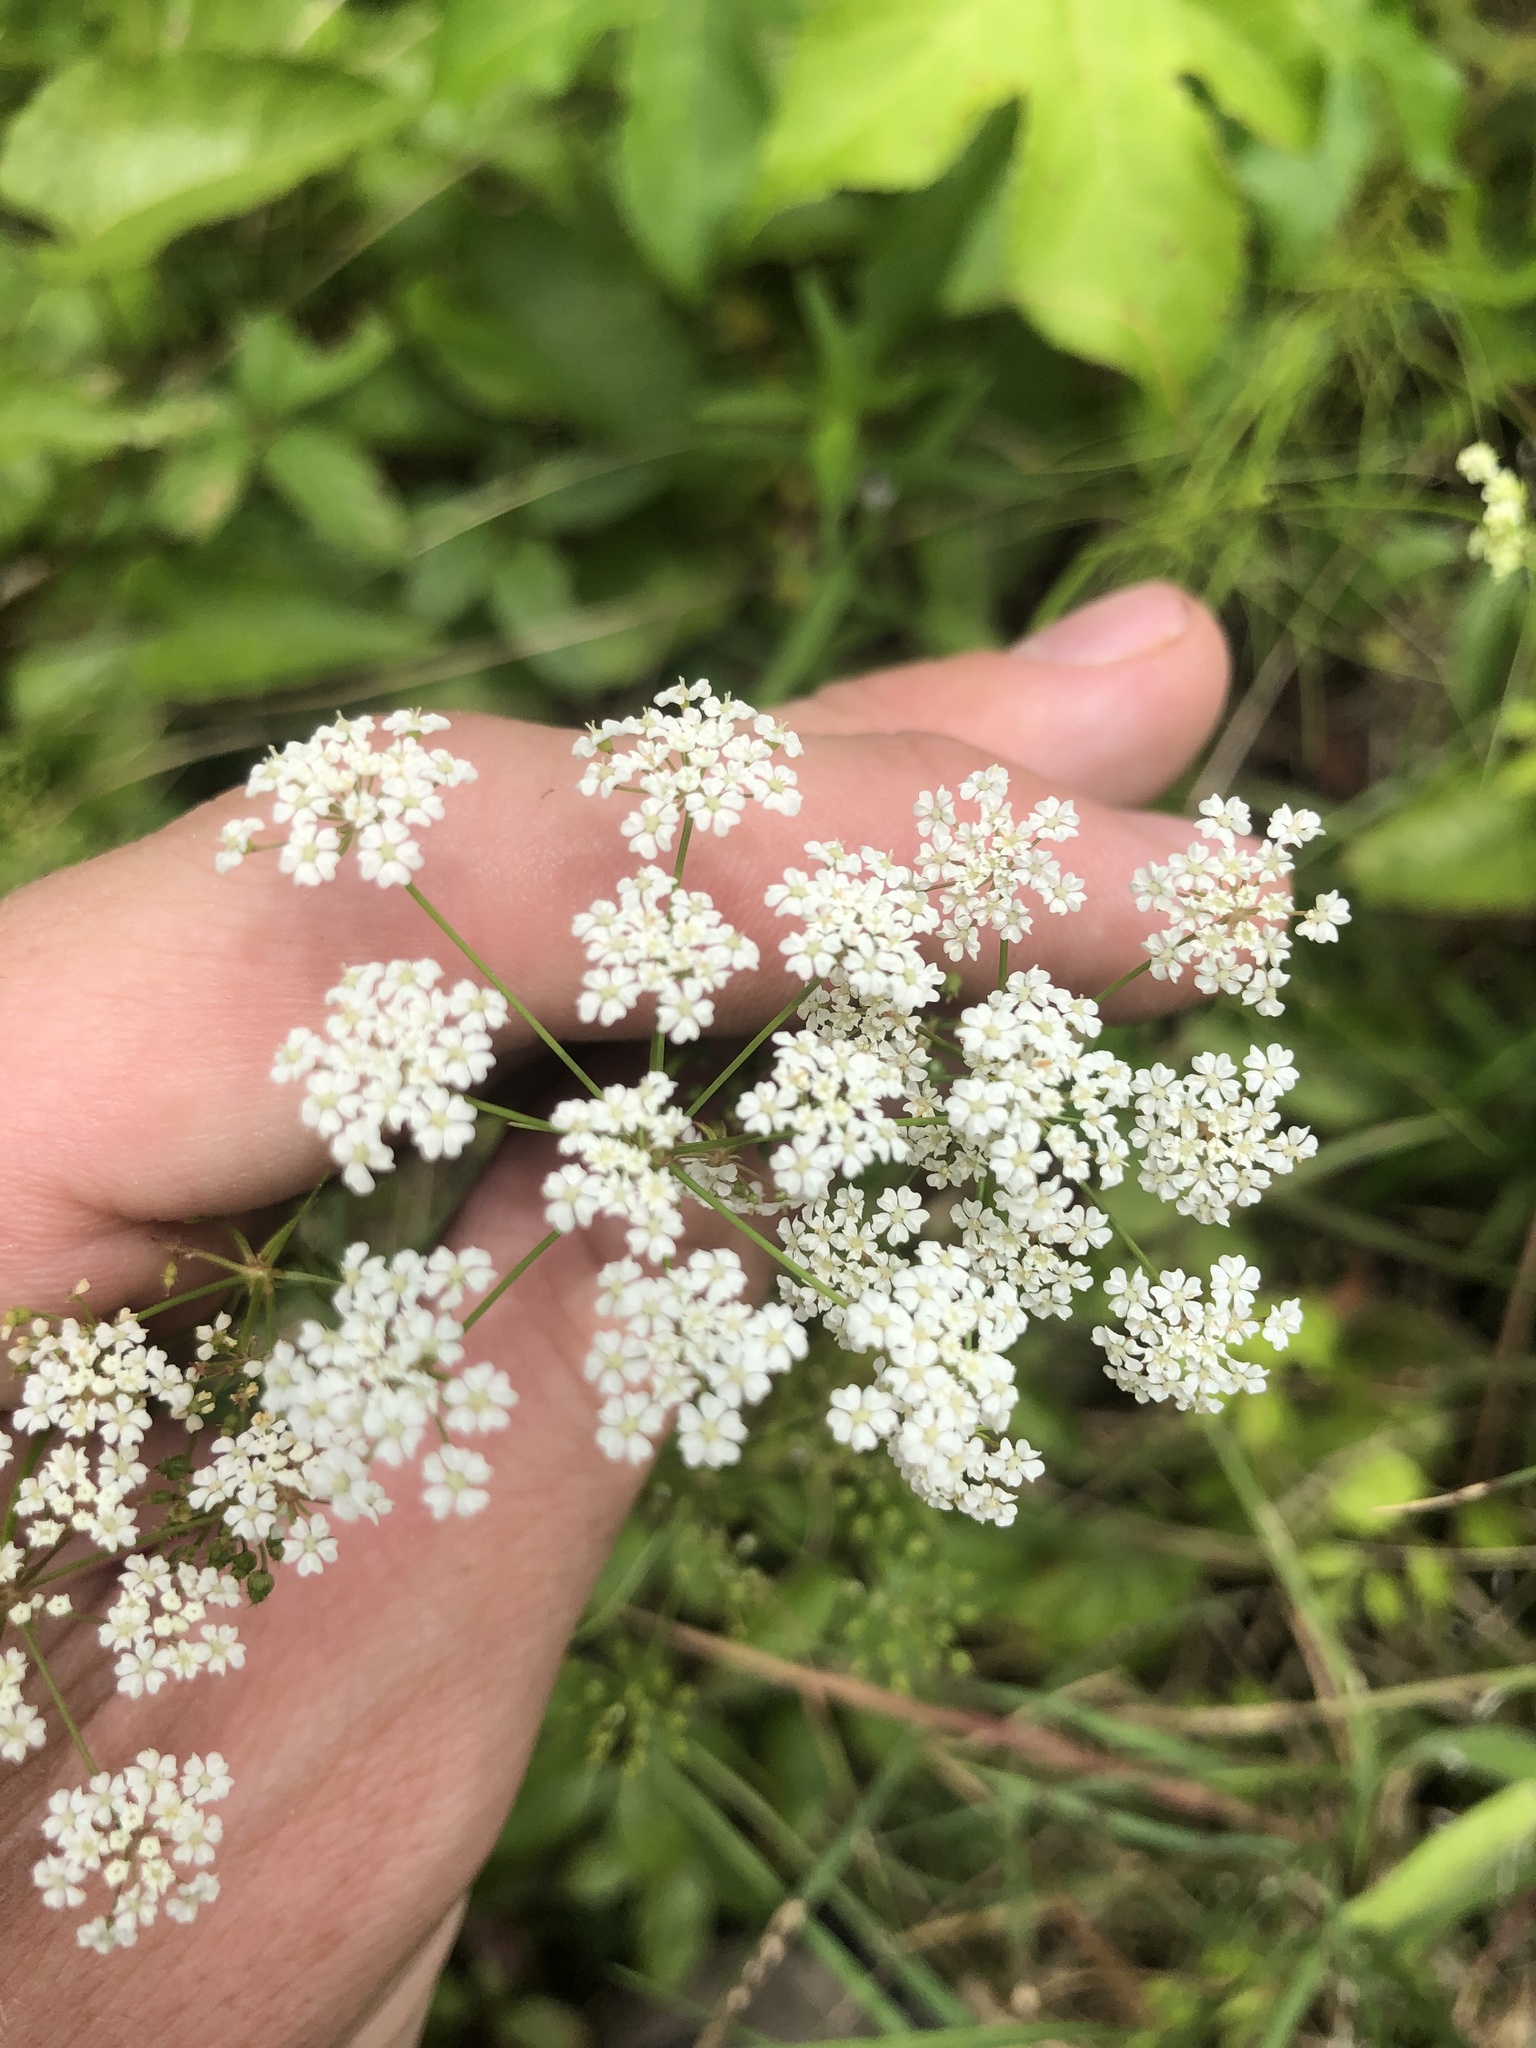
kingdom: Plantae
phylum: Tracheophyta
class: Magnoliopsida
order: Apiales
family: Apiaceae
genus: Ptilimnium
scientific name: Ptilimnium nuttallii
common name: Ozark bishop's-weed
